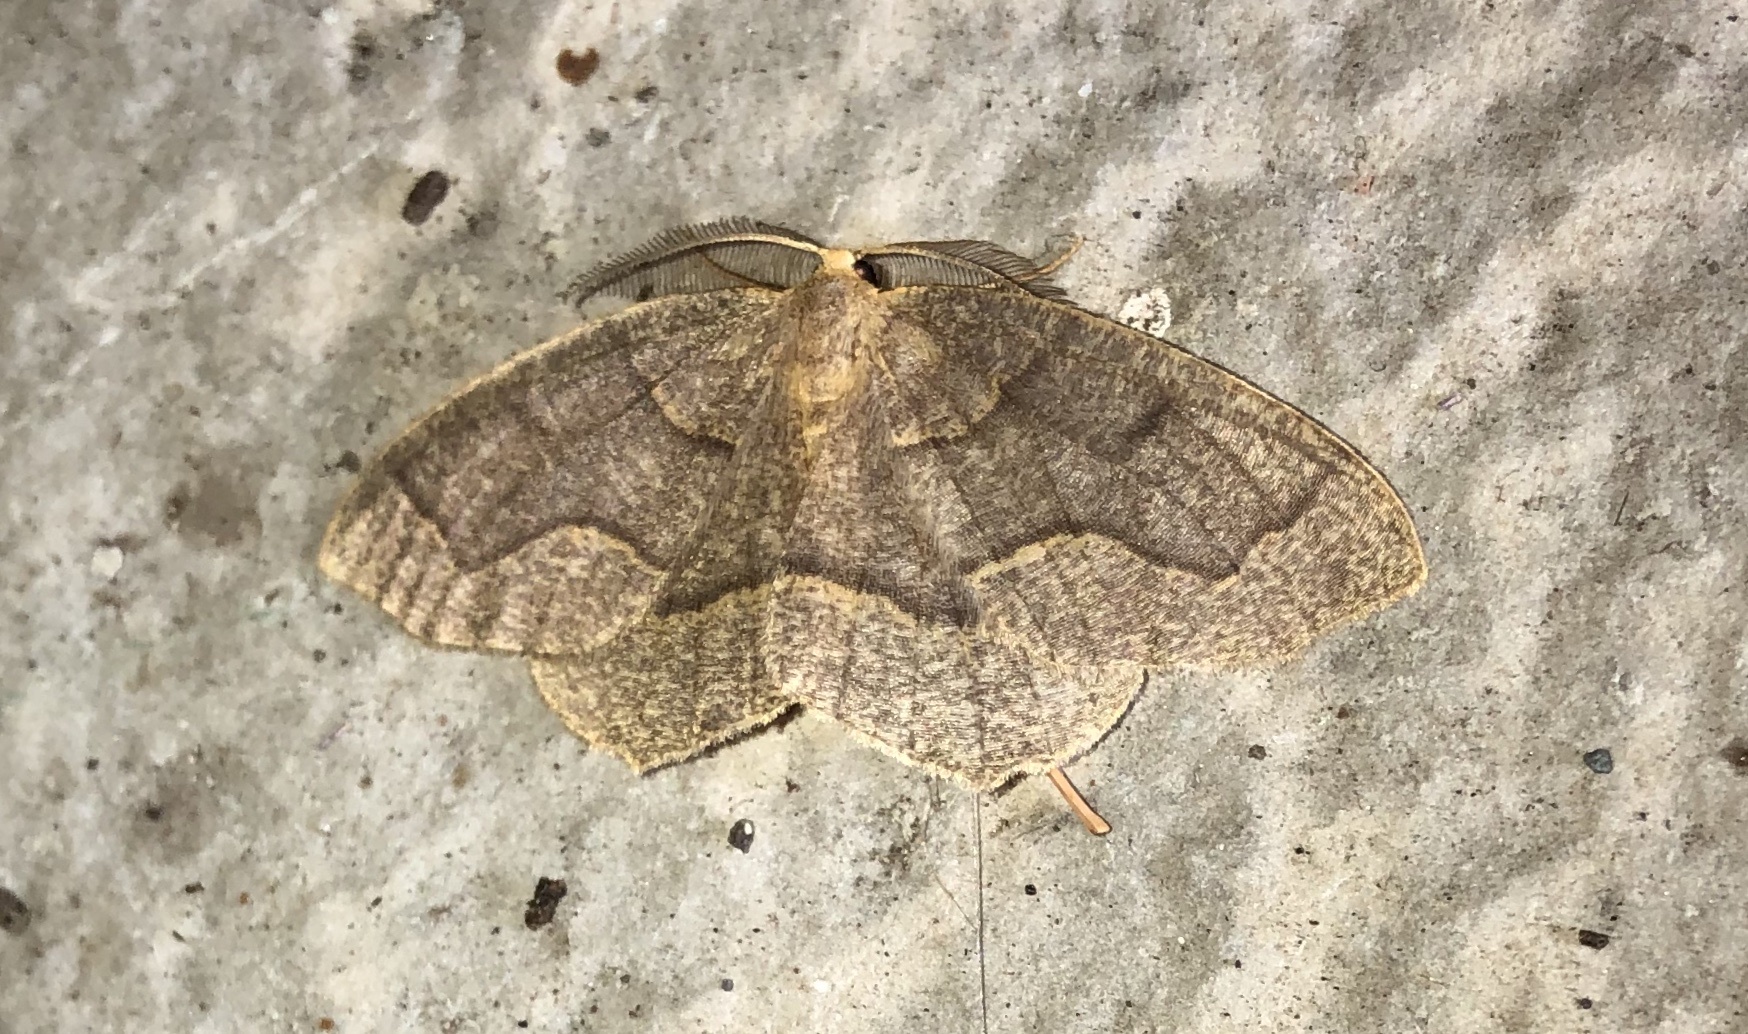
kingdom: Animalia
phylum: Arthropoda
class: Insecta
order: Lepidoptera
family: Geometridae
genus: Lambdina
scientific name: Lambdina fiscellaria
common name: Hemlock looper
